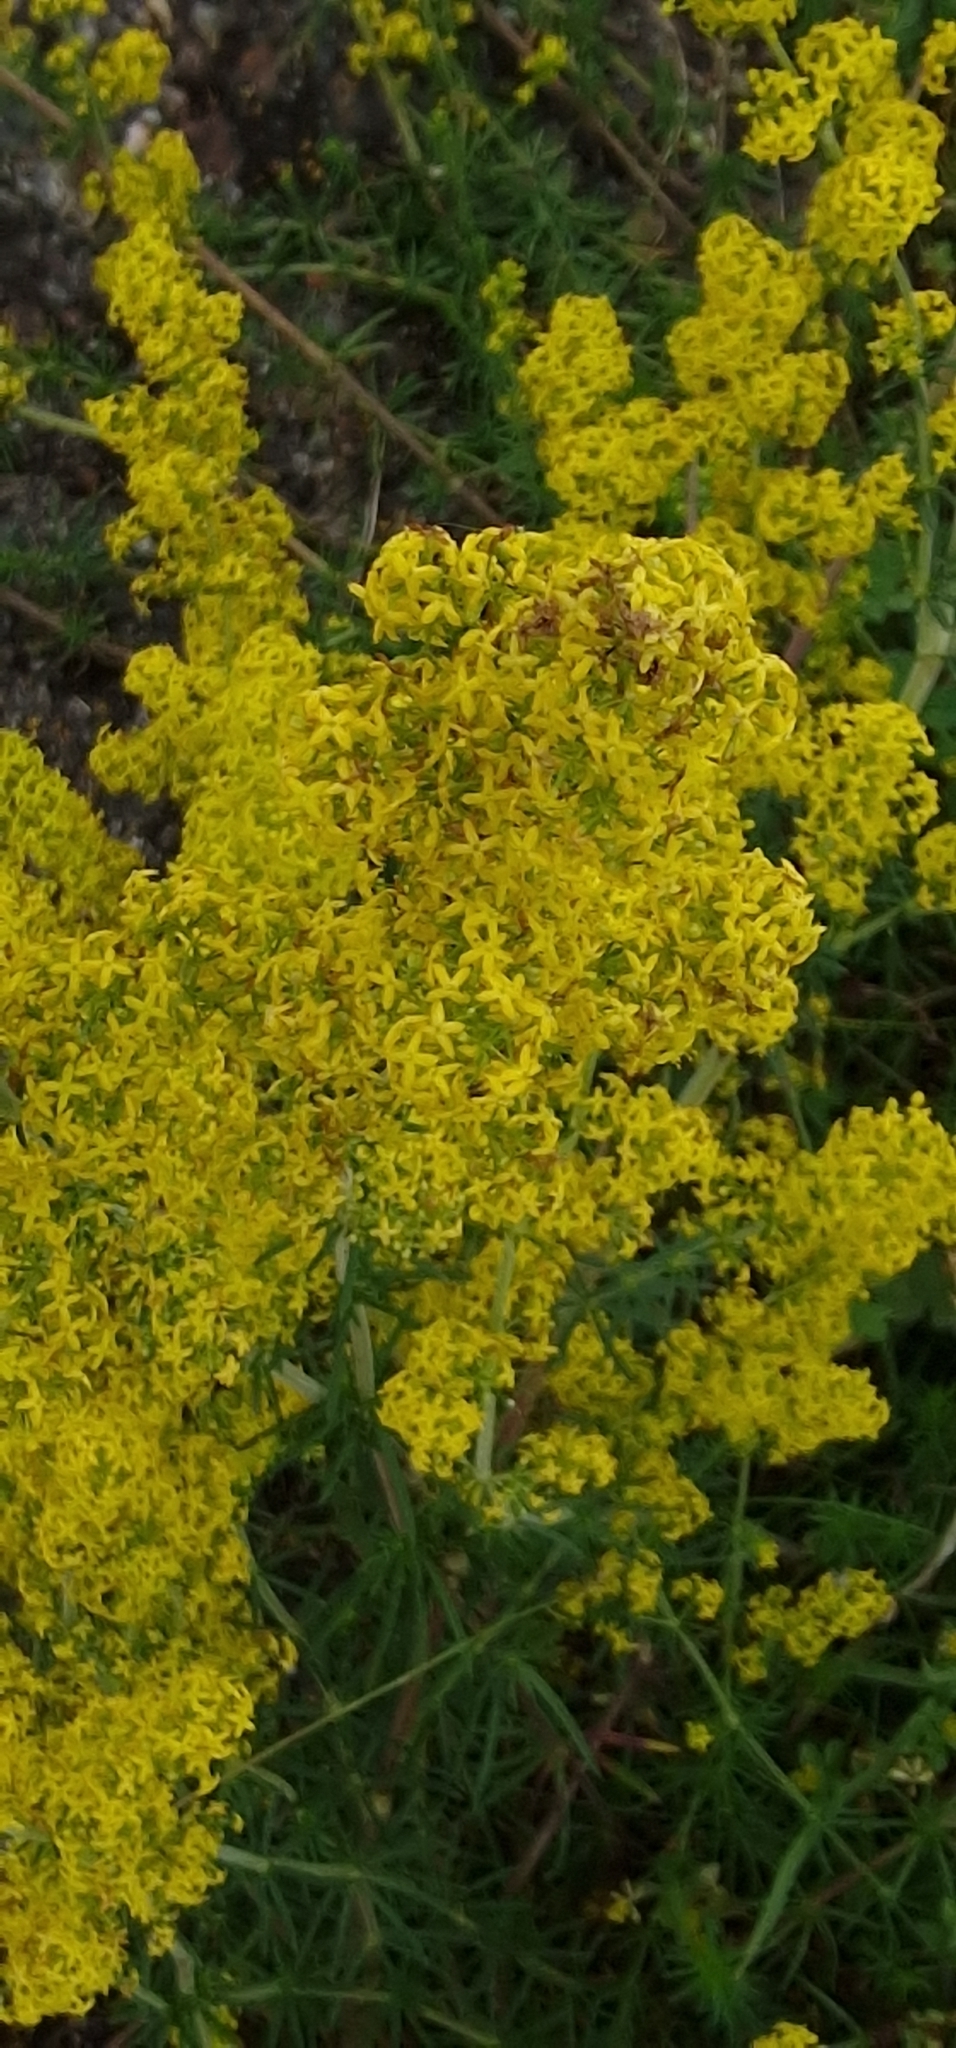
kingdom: Plantae
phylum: Tracheophyta
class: Magnoliopsida
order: Gentianales
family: Rubiaceae
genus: Galium
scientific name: Galium verum
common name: Lady's bedstraw
